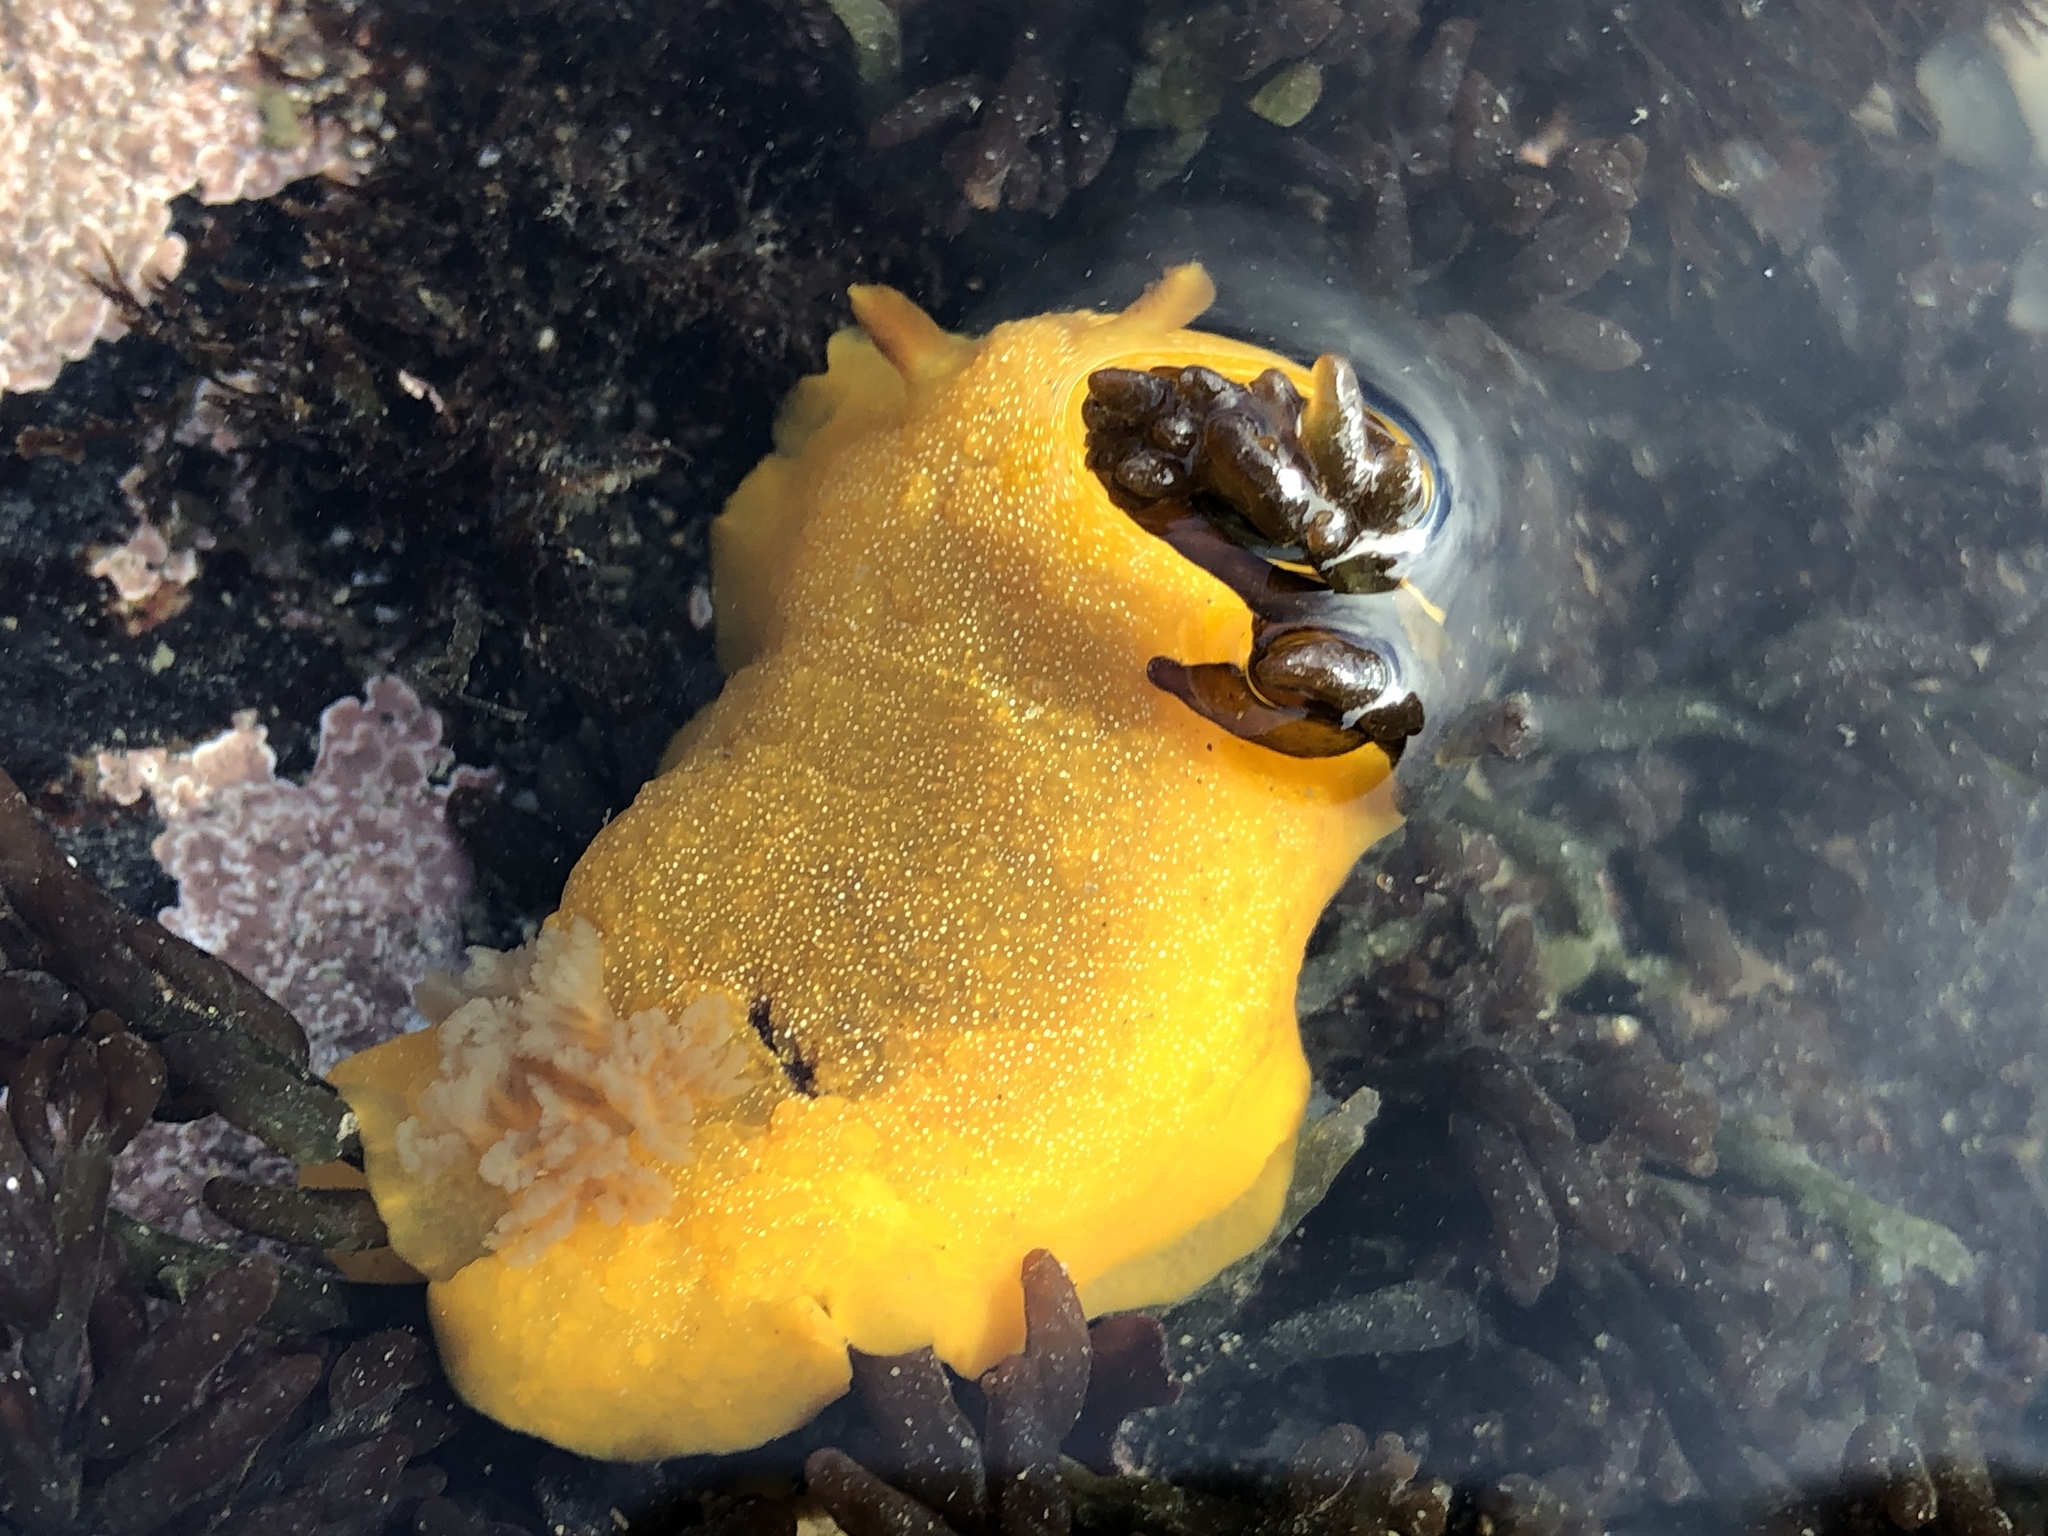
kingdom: Animalia
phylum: Mollusca
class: Gastropoda
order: Nudibranchia
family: Dendrodorididae
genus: Doriopsilla
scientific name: Doriopsilla albopunctata
